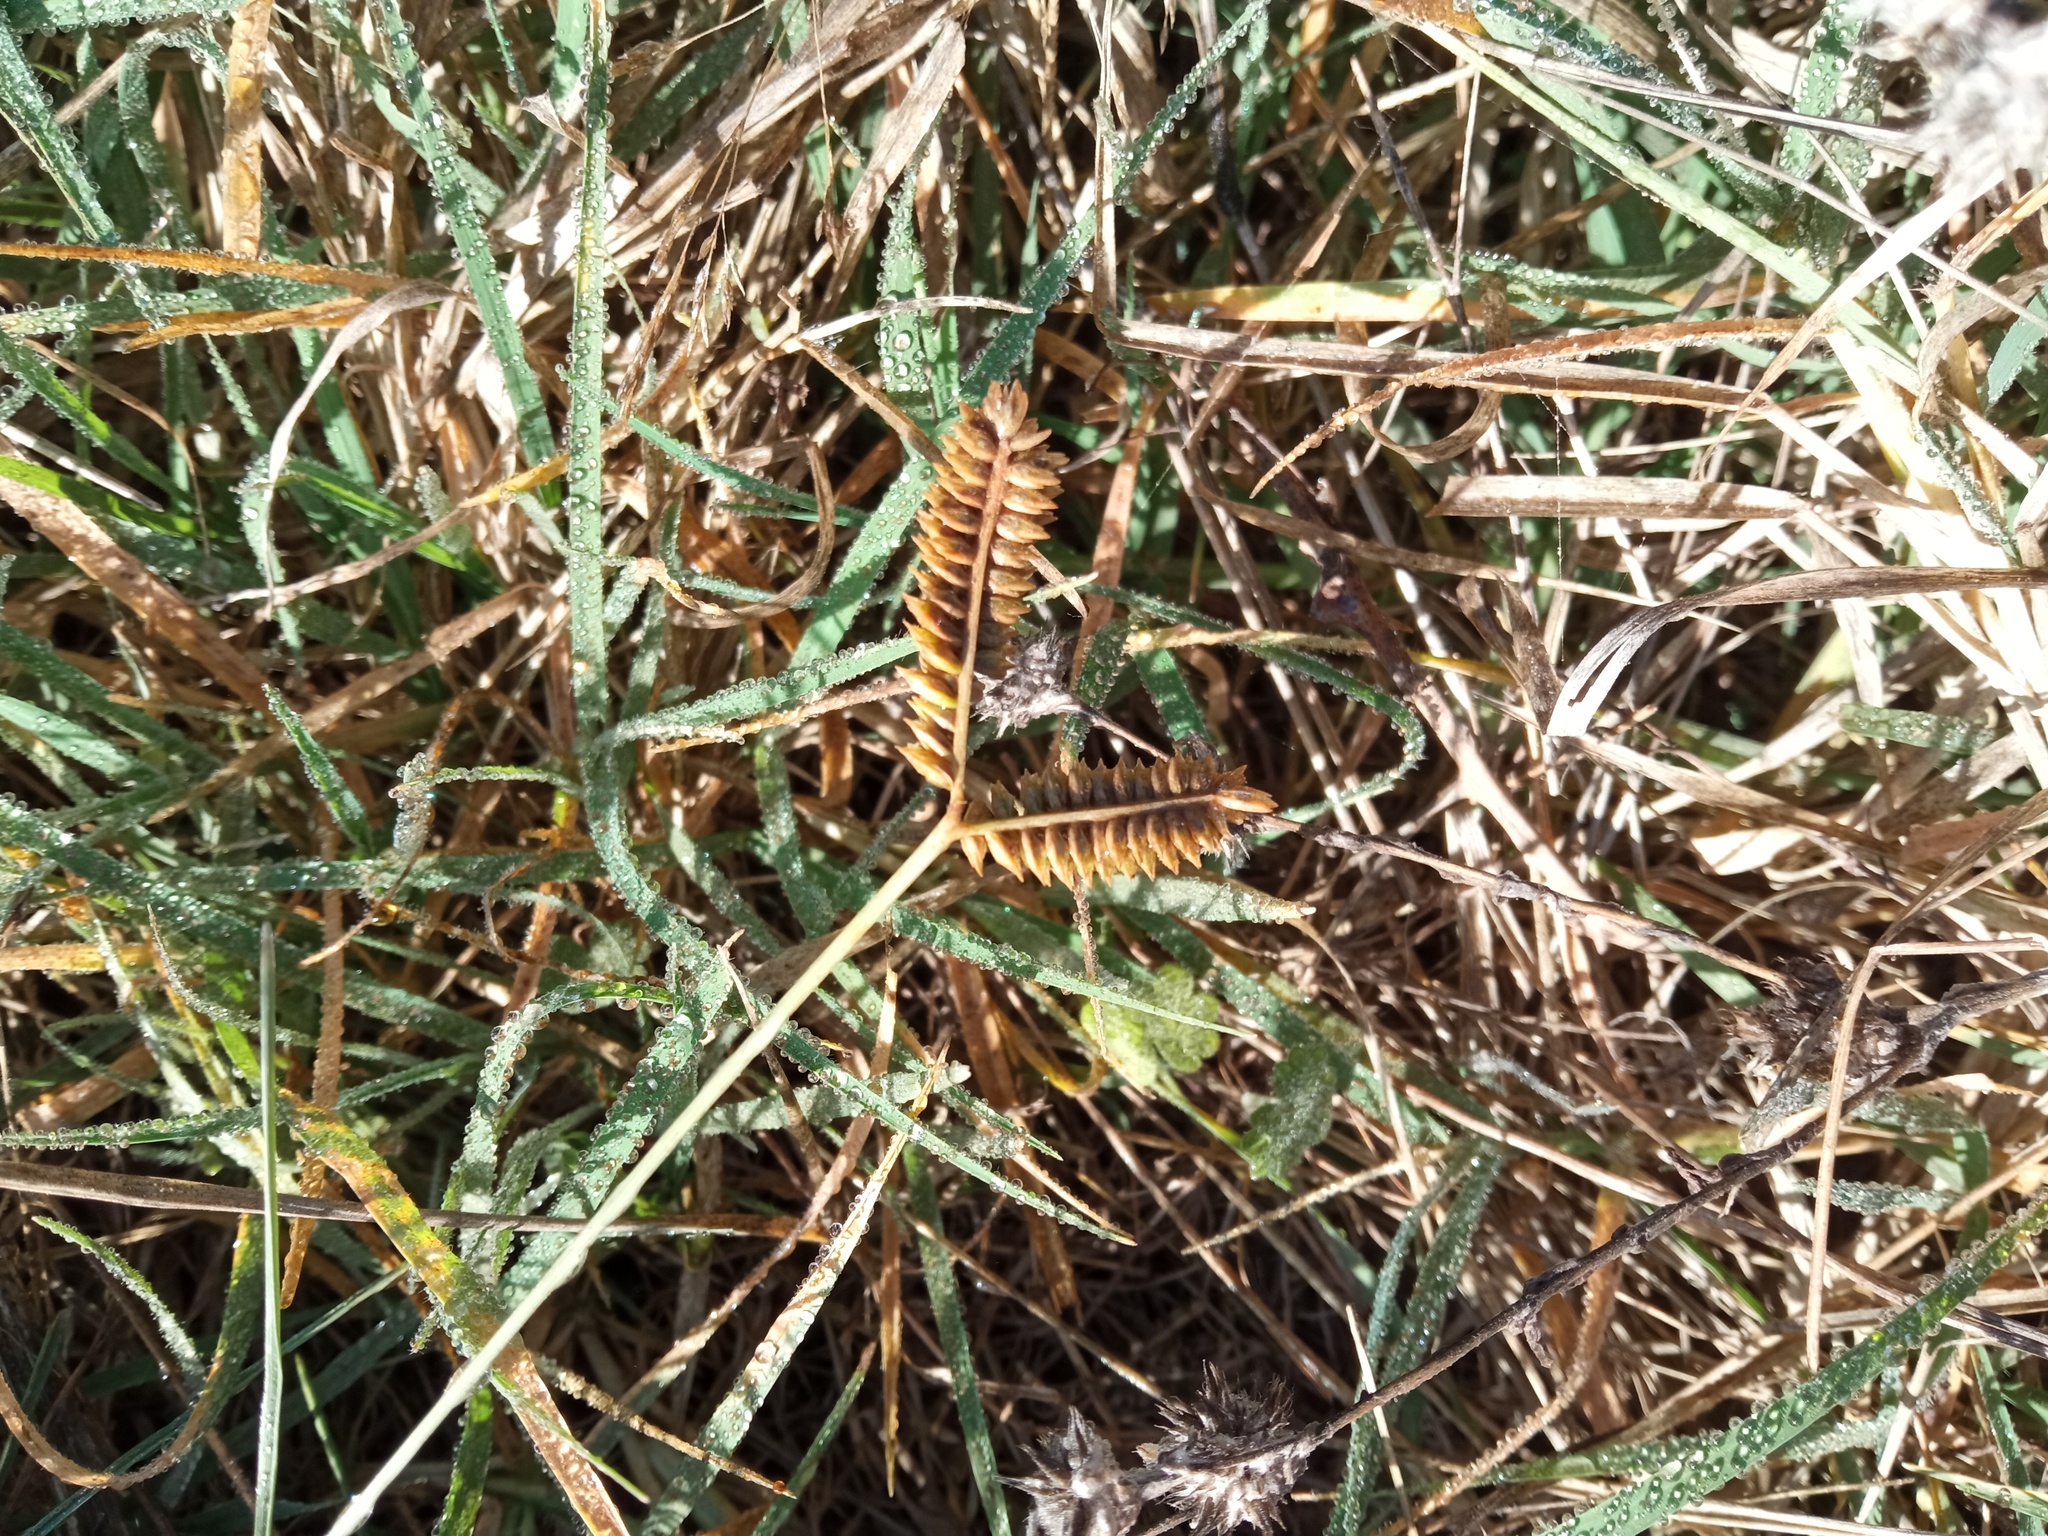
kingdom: Plantae
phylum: Tracheophyta
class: Liliopsida
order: Poales
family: Poaceae
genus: Eleusine
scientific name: Eleusine tristachya
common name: American yard-grass
